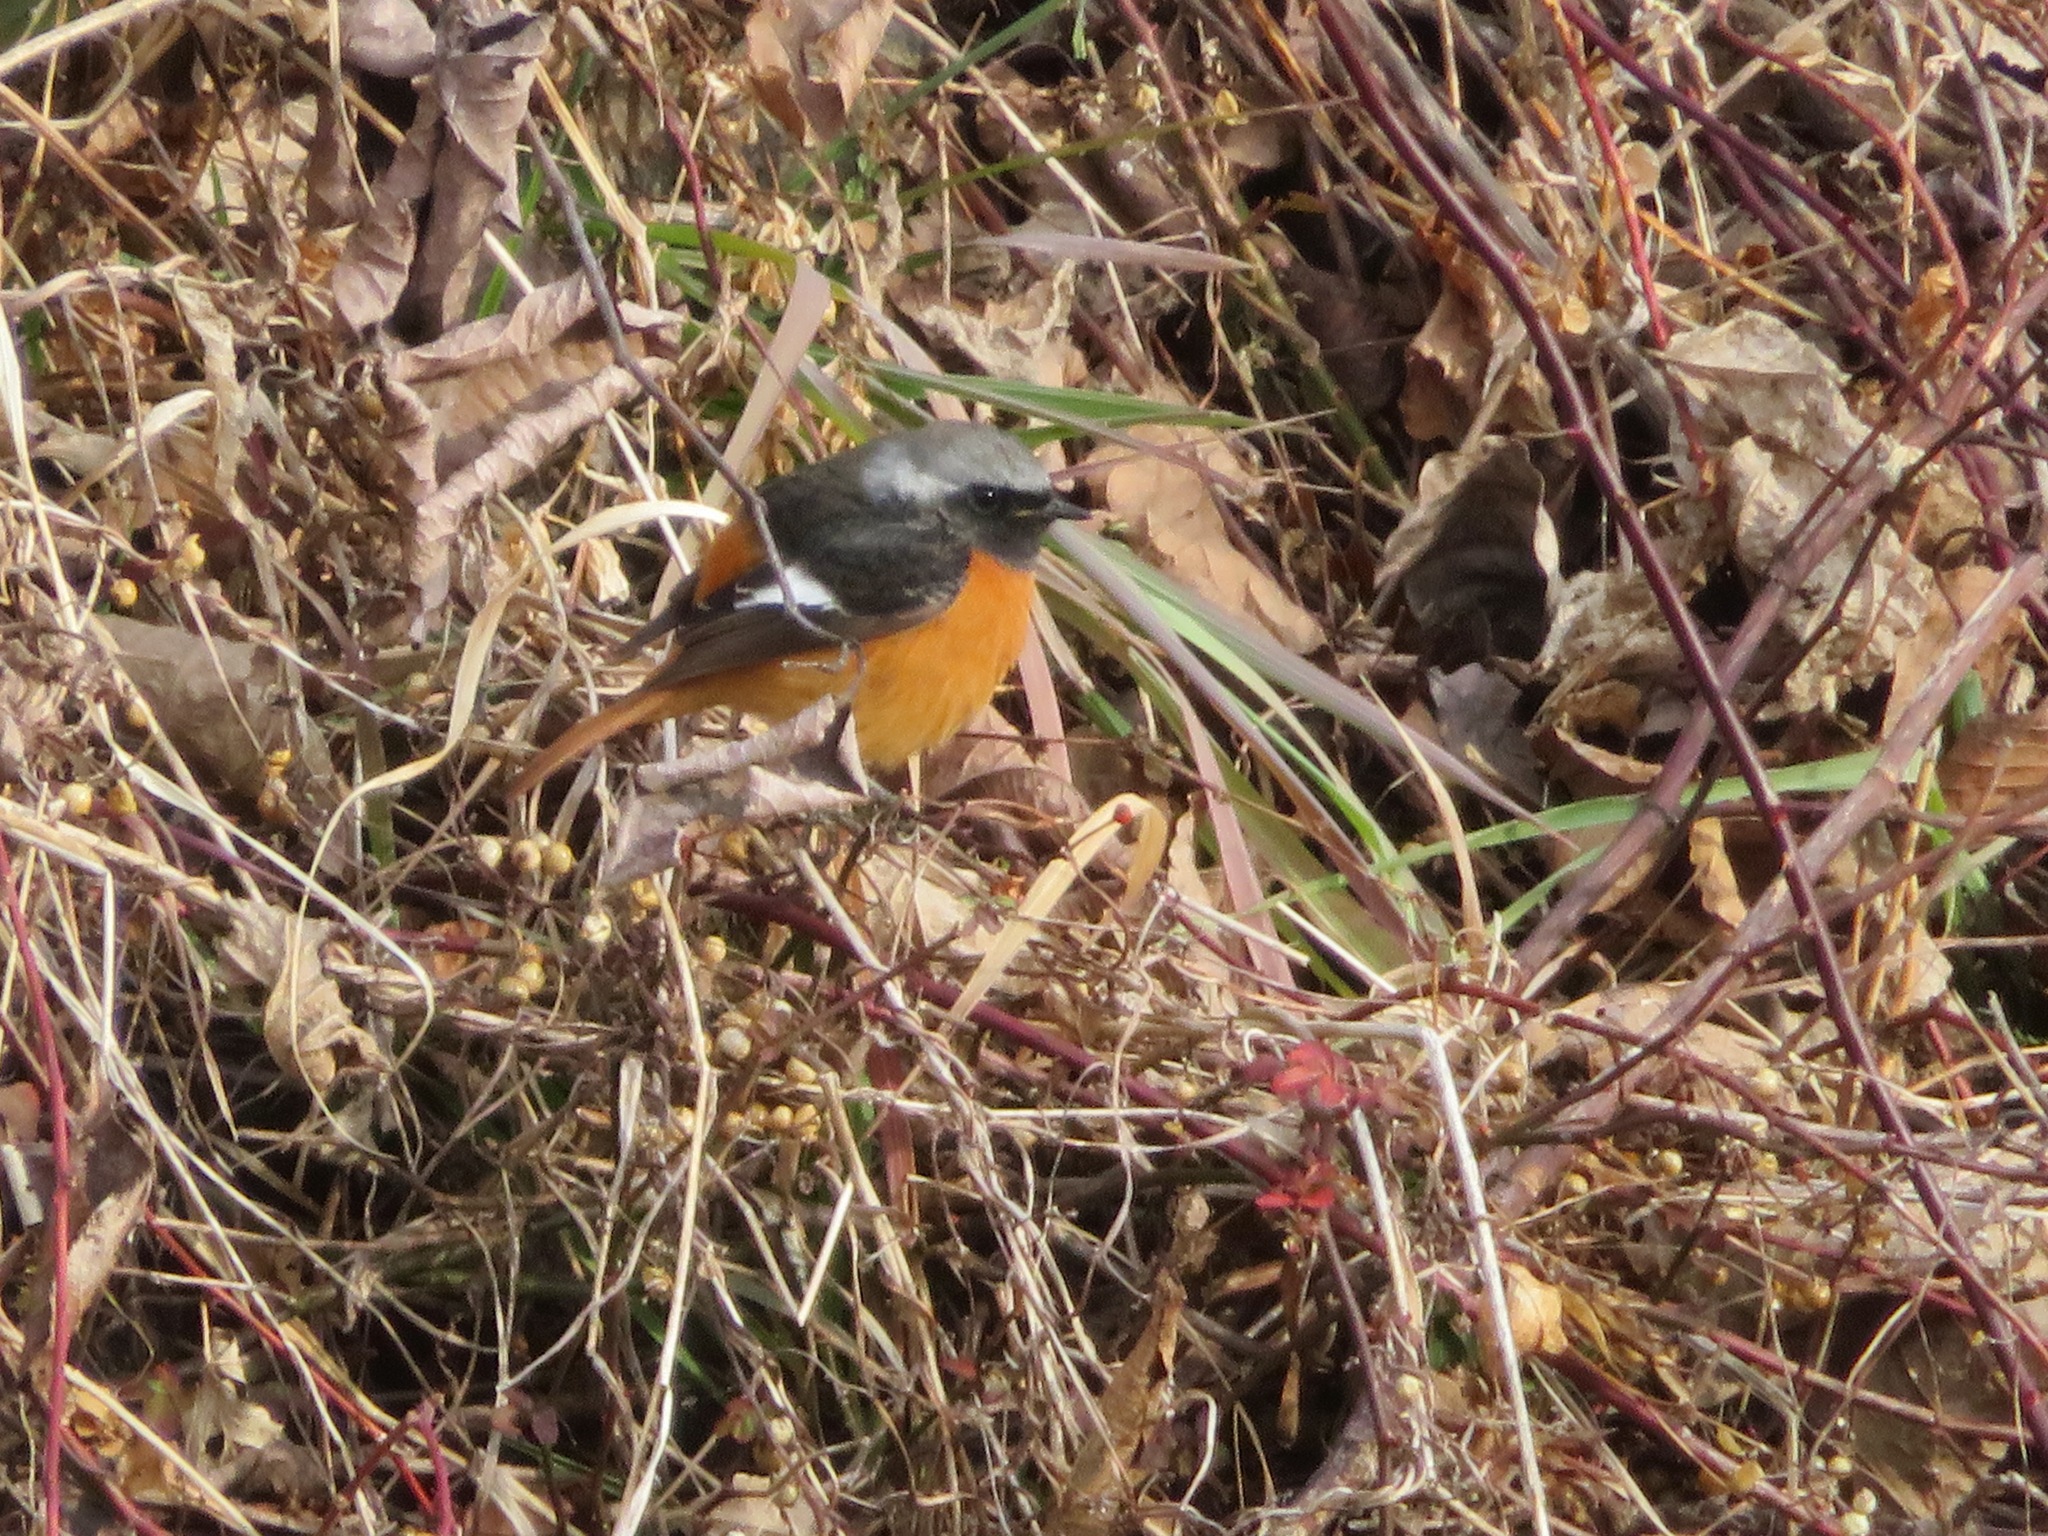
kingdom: Animalia
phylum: Chordata
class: Aves
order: Passeriformes
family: Muscicapidae
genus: Phoenicurus
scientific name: Phoenicurus auroreus
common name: Daurian redstart
